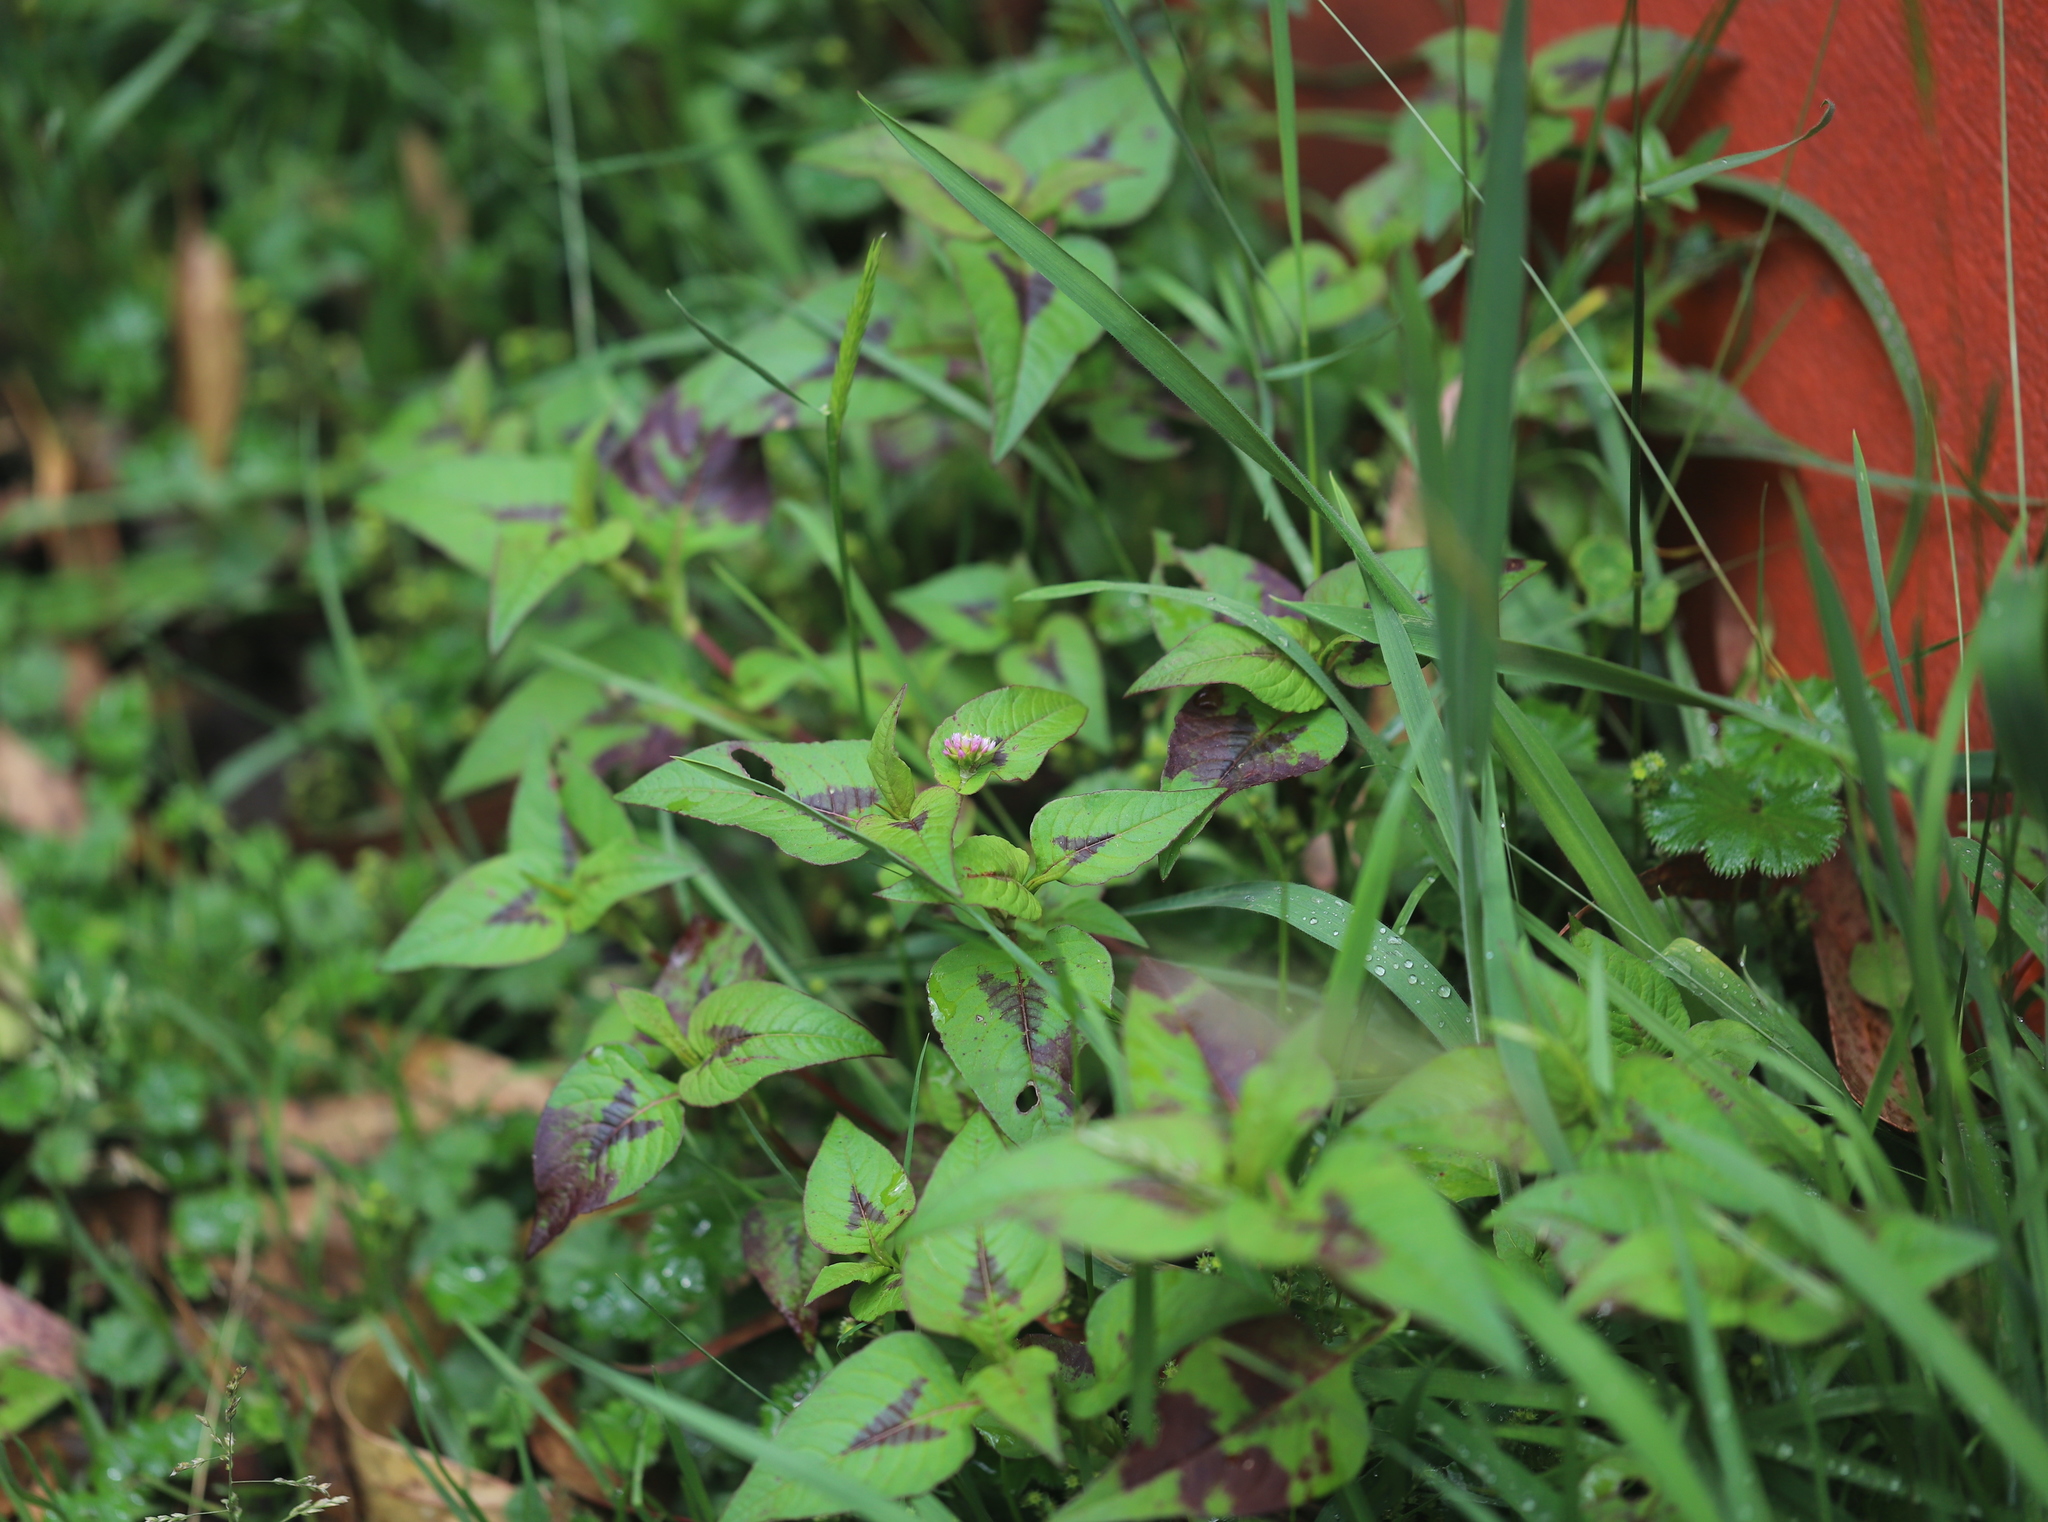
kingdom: Plantae
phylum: Tracheophyta
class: Magnoliopsida
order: Caryophyllales
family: Polygonaceae
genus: Persicaria
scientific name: Persicaria nepalensis
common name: Nepal persicaria
